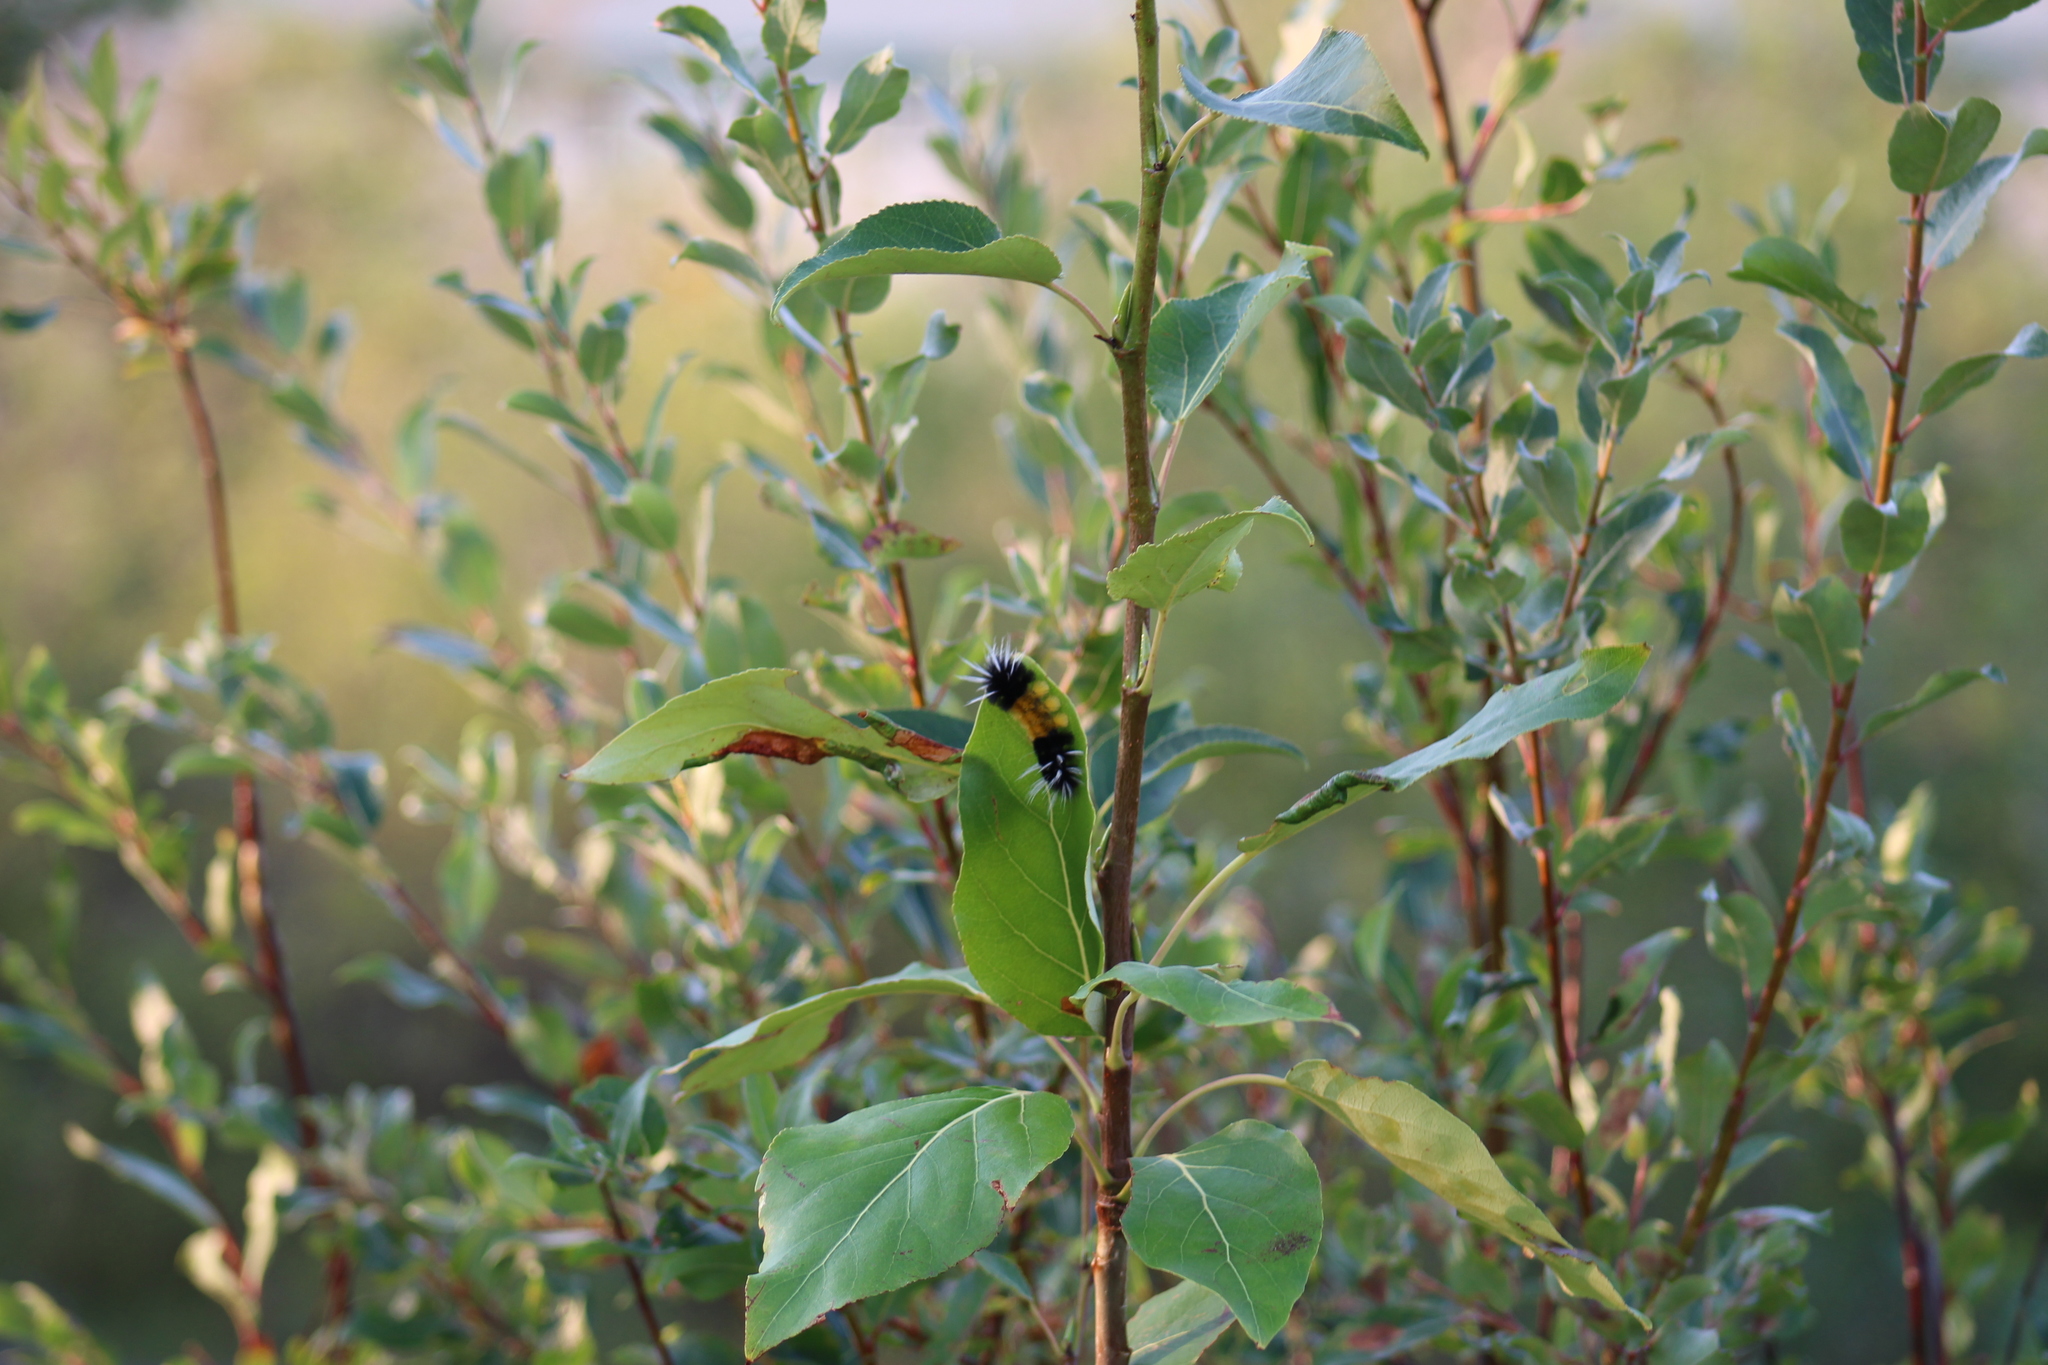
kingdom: Animalia
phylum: Arthropoda
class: Insecta
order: Lepidoptera
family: Erebidae
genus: Lophocampa
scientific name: Lophocampa maculata
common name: Spotted tussock moth
